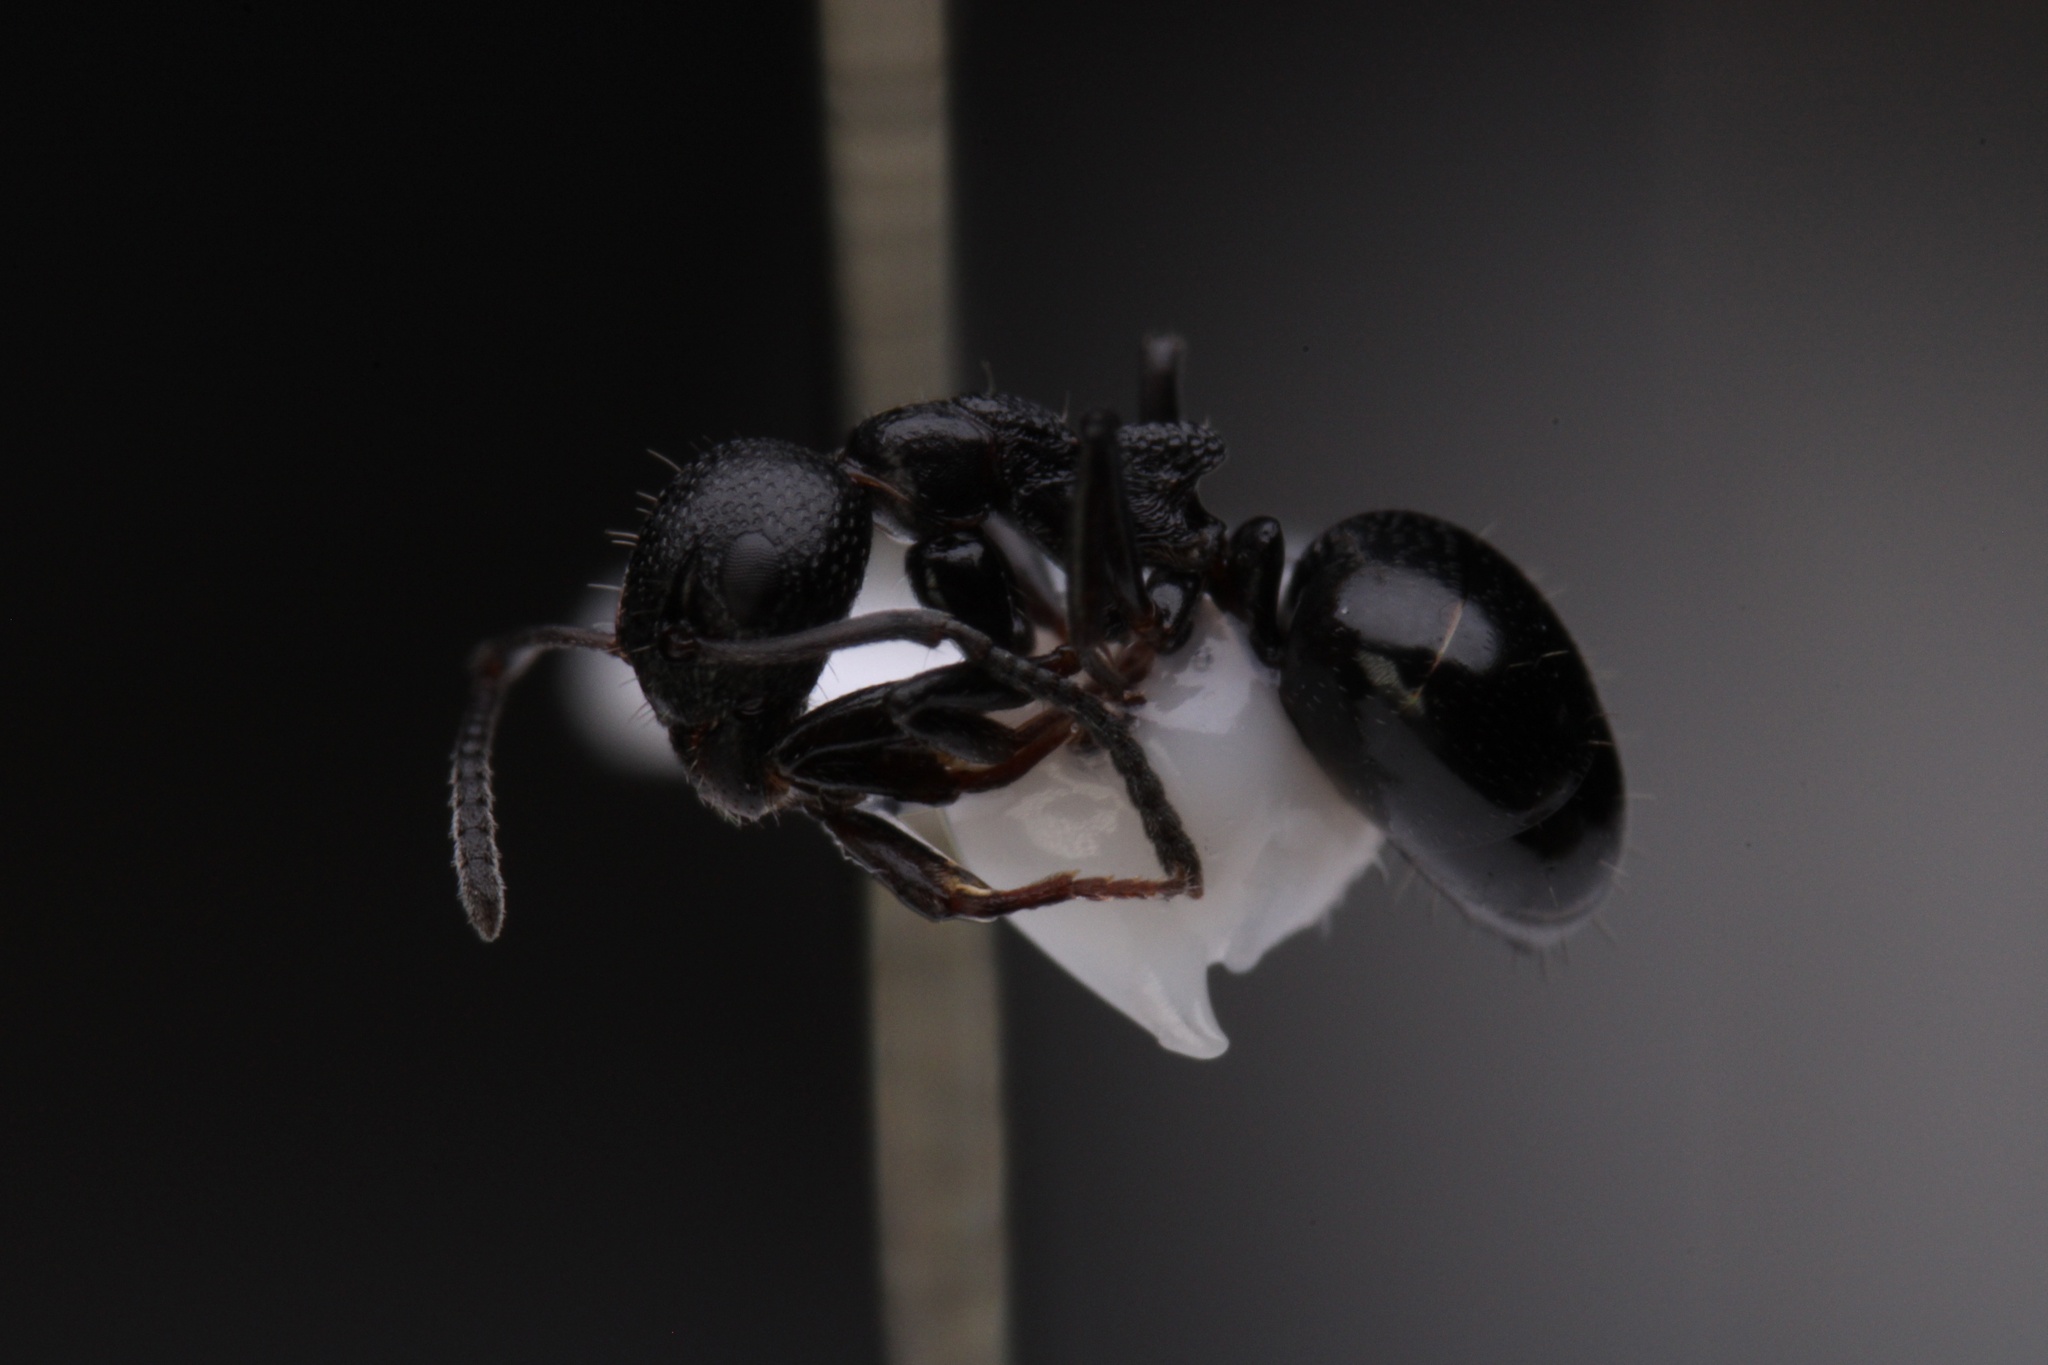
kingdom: Animalia
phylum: Arthropoda
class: Insecta
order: Hymenoptera
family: Formicidae
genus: Dolichoderus
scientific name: Dolichoderus pustulatus
